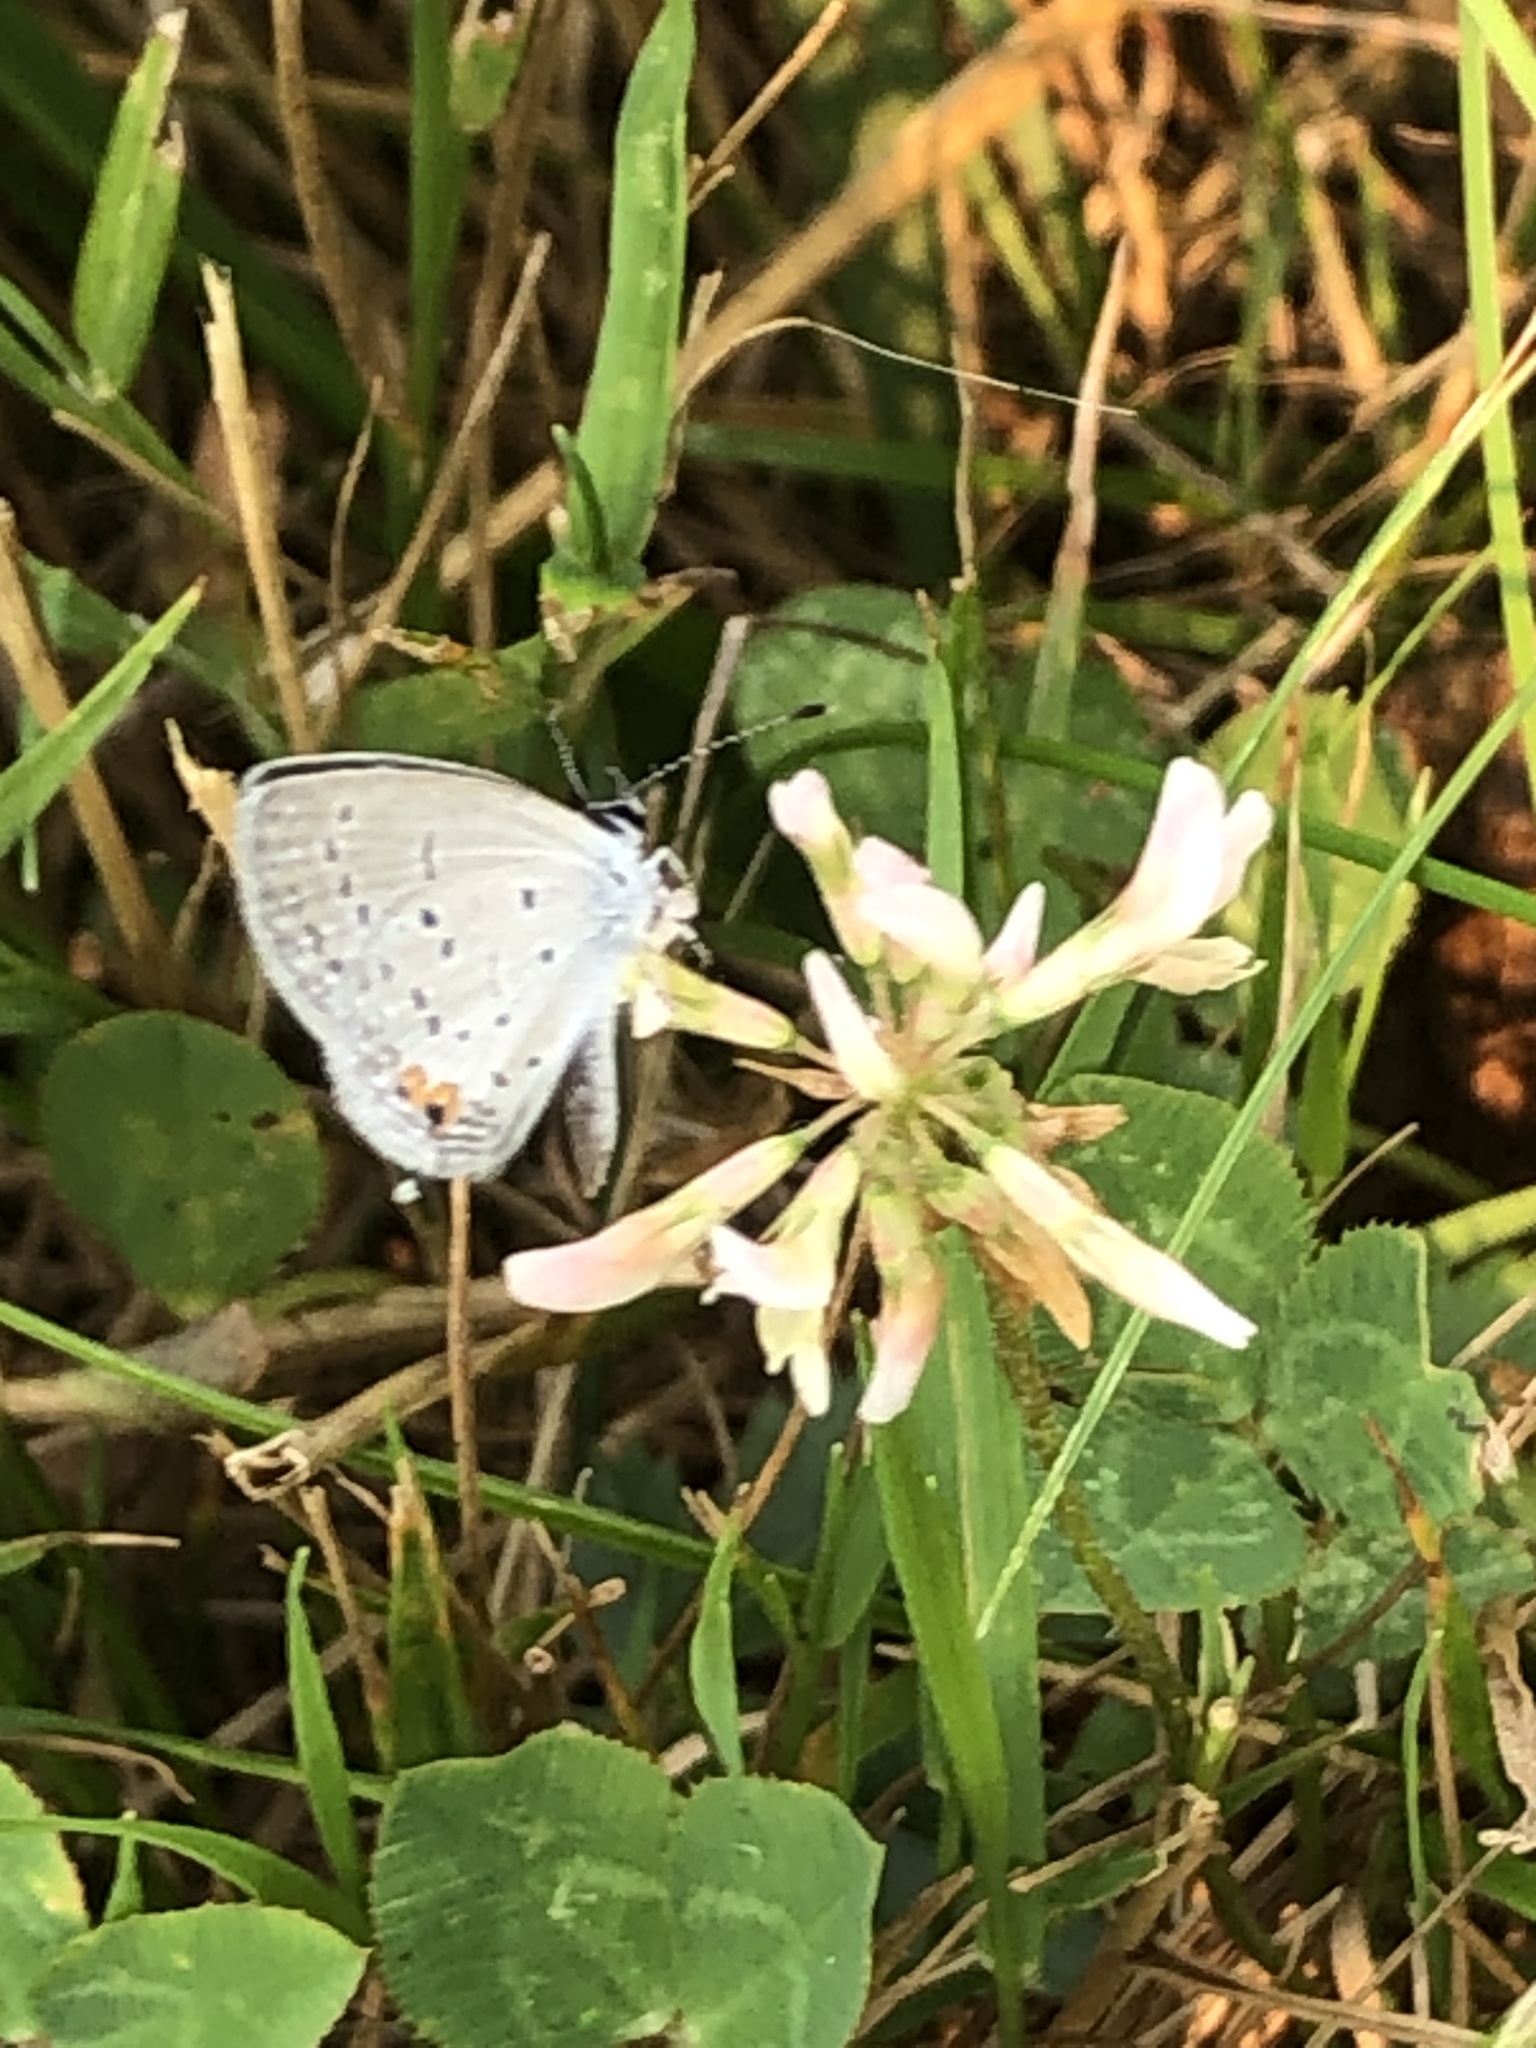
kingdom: Animalia
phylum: Arthropoda
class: Insecta
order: Lepidoptera
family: Lycaenidae
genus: Elkalyce
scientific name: Elkalyce comyntas
